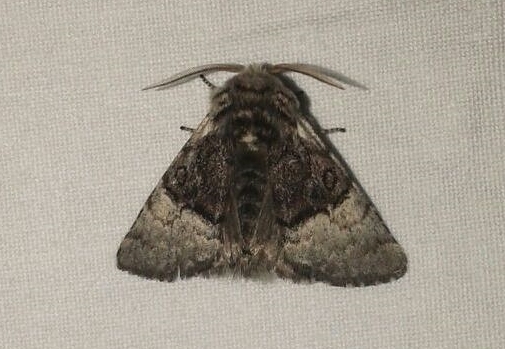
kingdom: Animalia
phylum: Arthropoda
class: Insecta
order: Lepidoptera
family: Noctuidae
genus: Colocasia
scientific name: Colocasia coryli
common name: Nut-tree tussock
